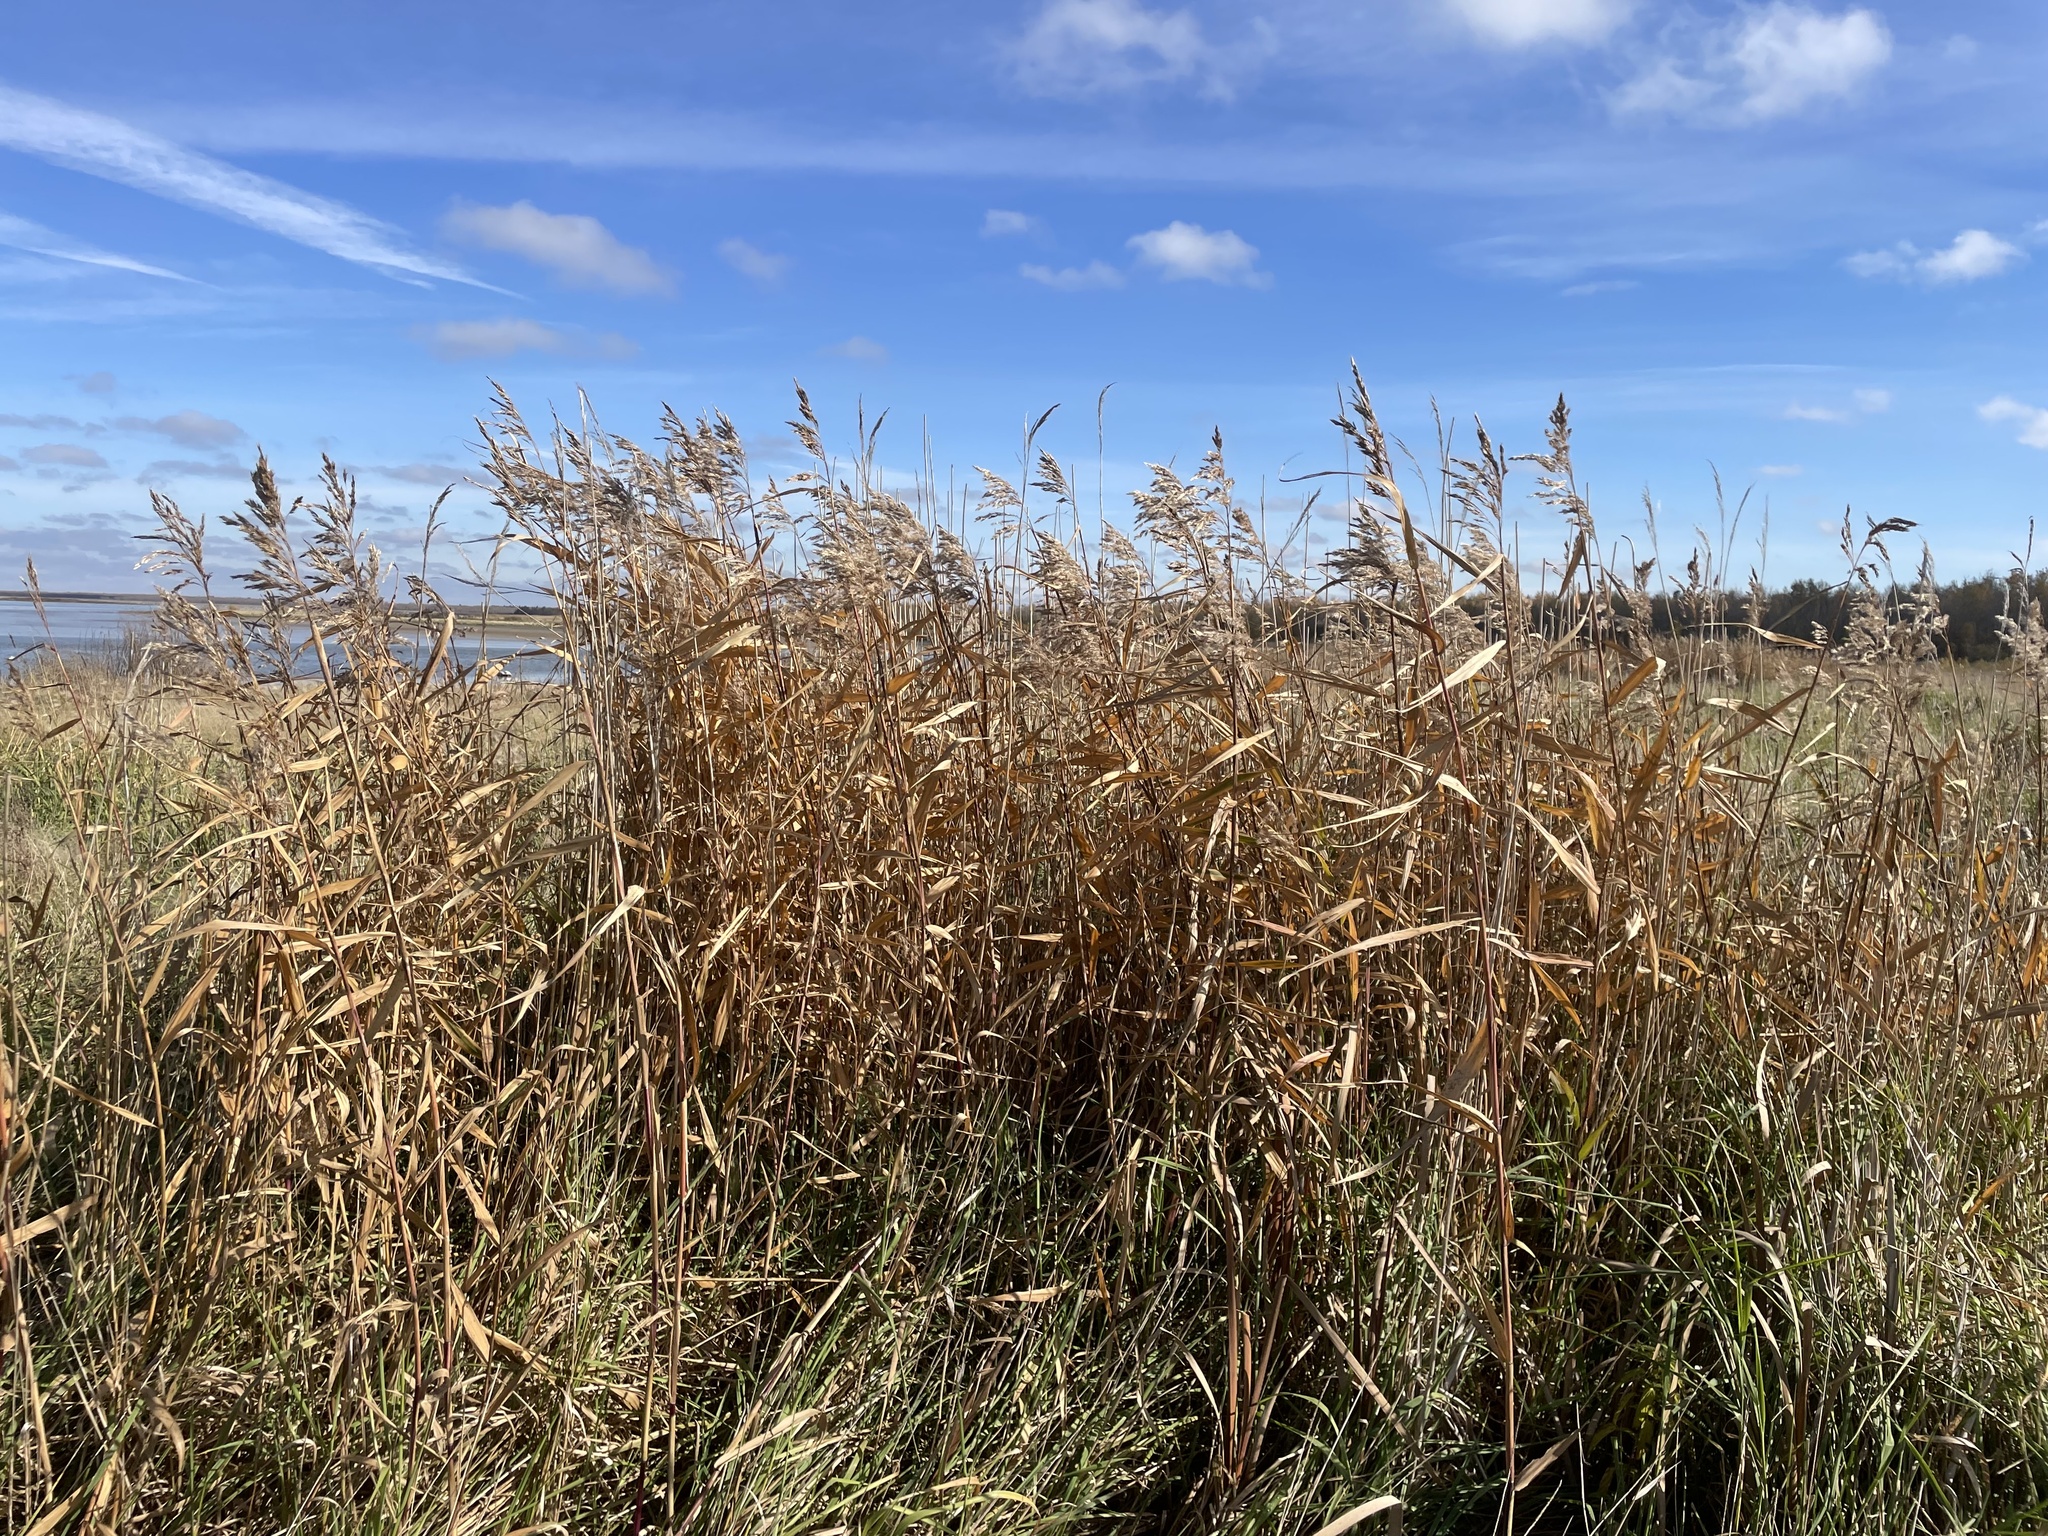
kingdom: Plantae
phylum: Tracheophyta
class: Liliopsida
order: Poales
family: Poaceae
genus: Phragmites
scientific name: Phragmites australis
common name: Common reed
